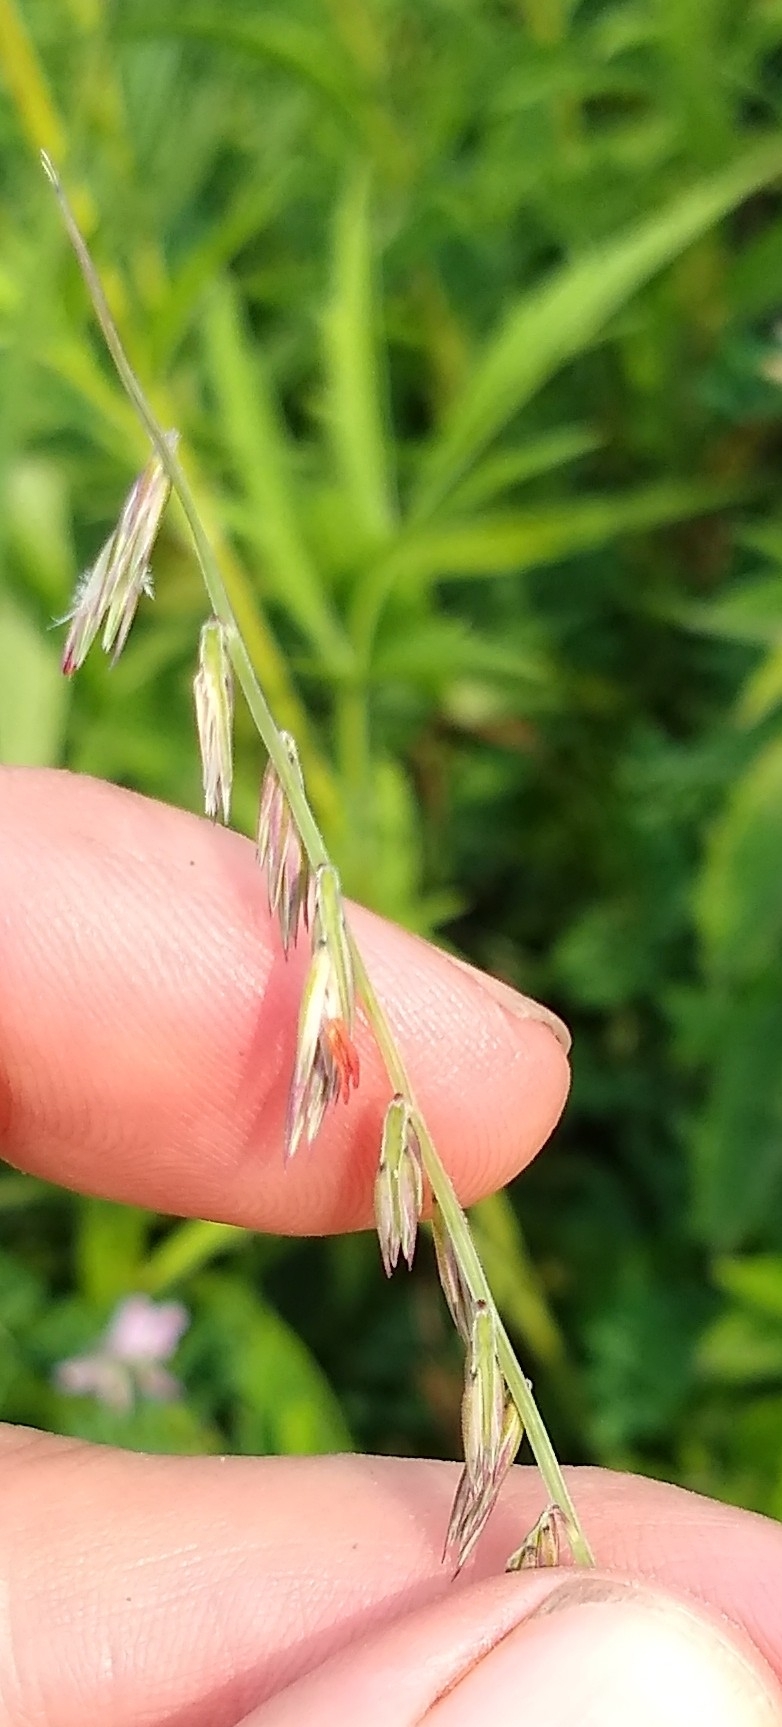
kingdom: Plantae
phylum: Tracheophyta
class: Liliopsida
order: Poales
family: Poaceae
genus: Bouteloua
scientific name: Bouteloua curtipendula
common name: Side-oats grama
